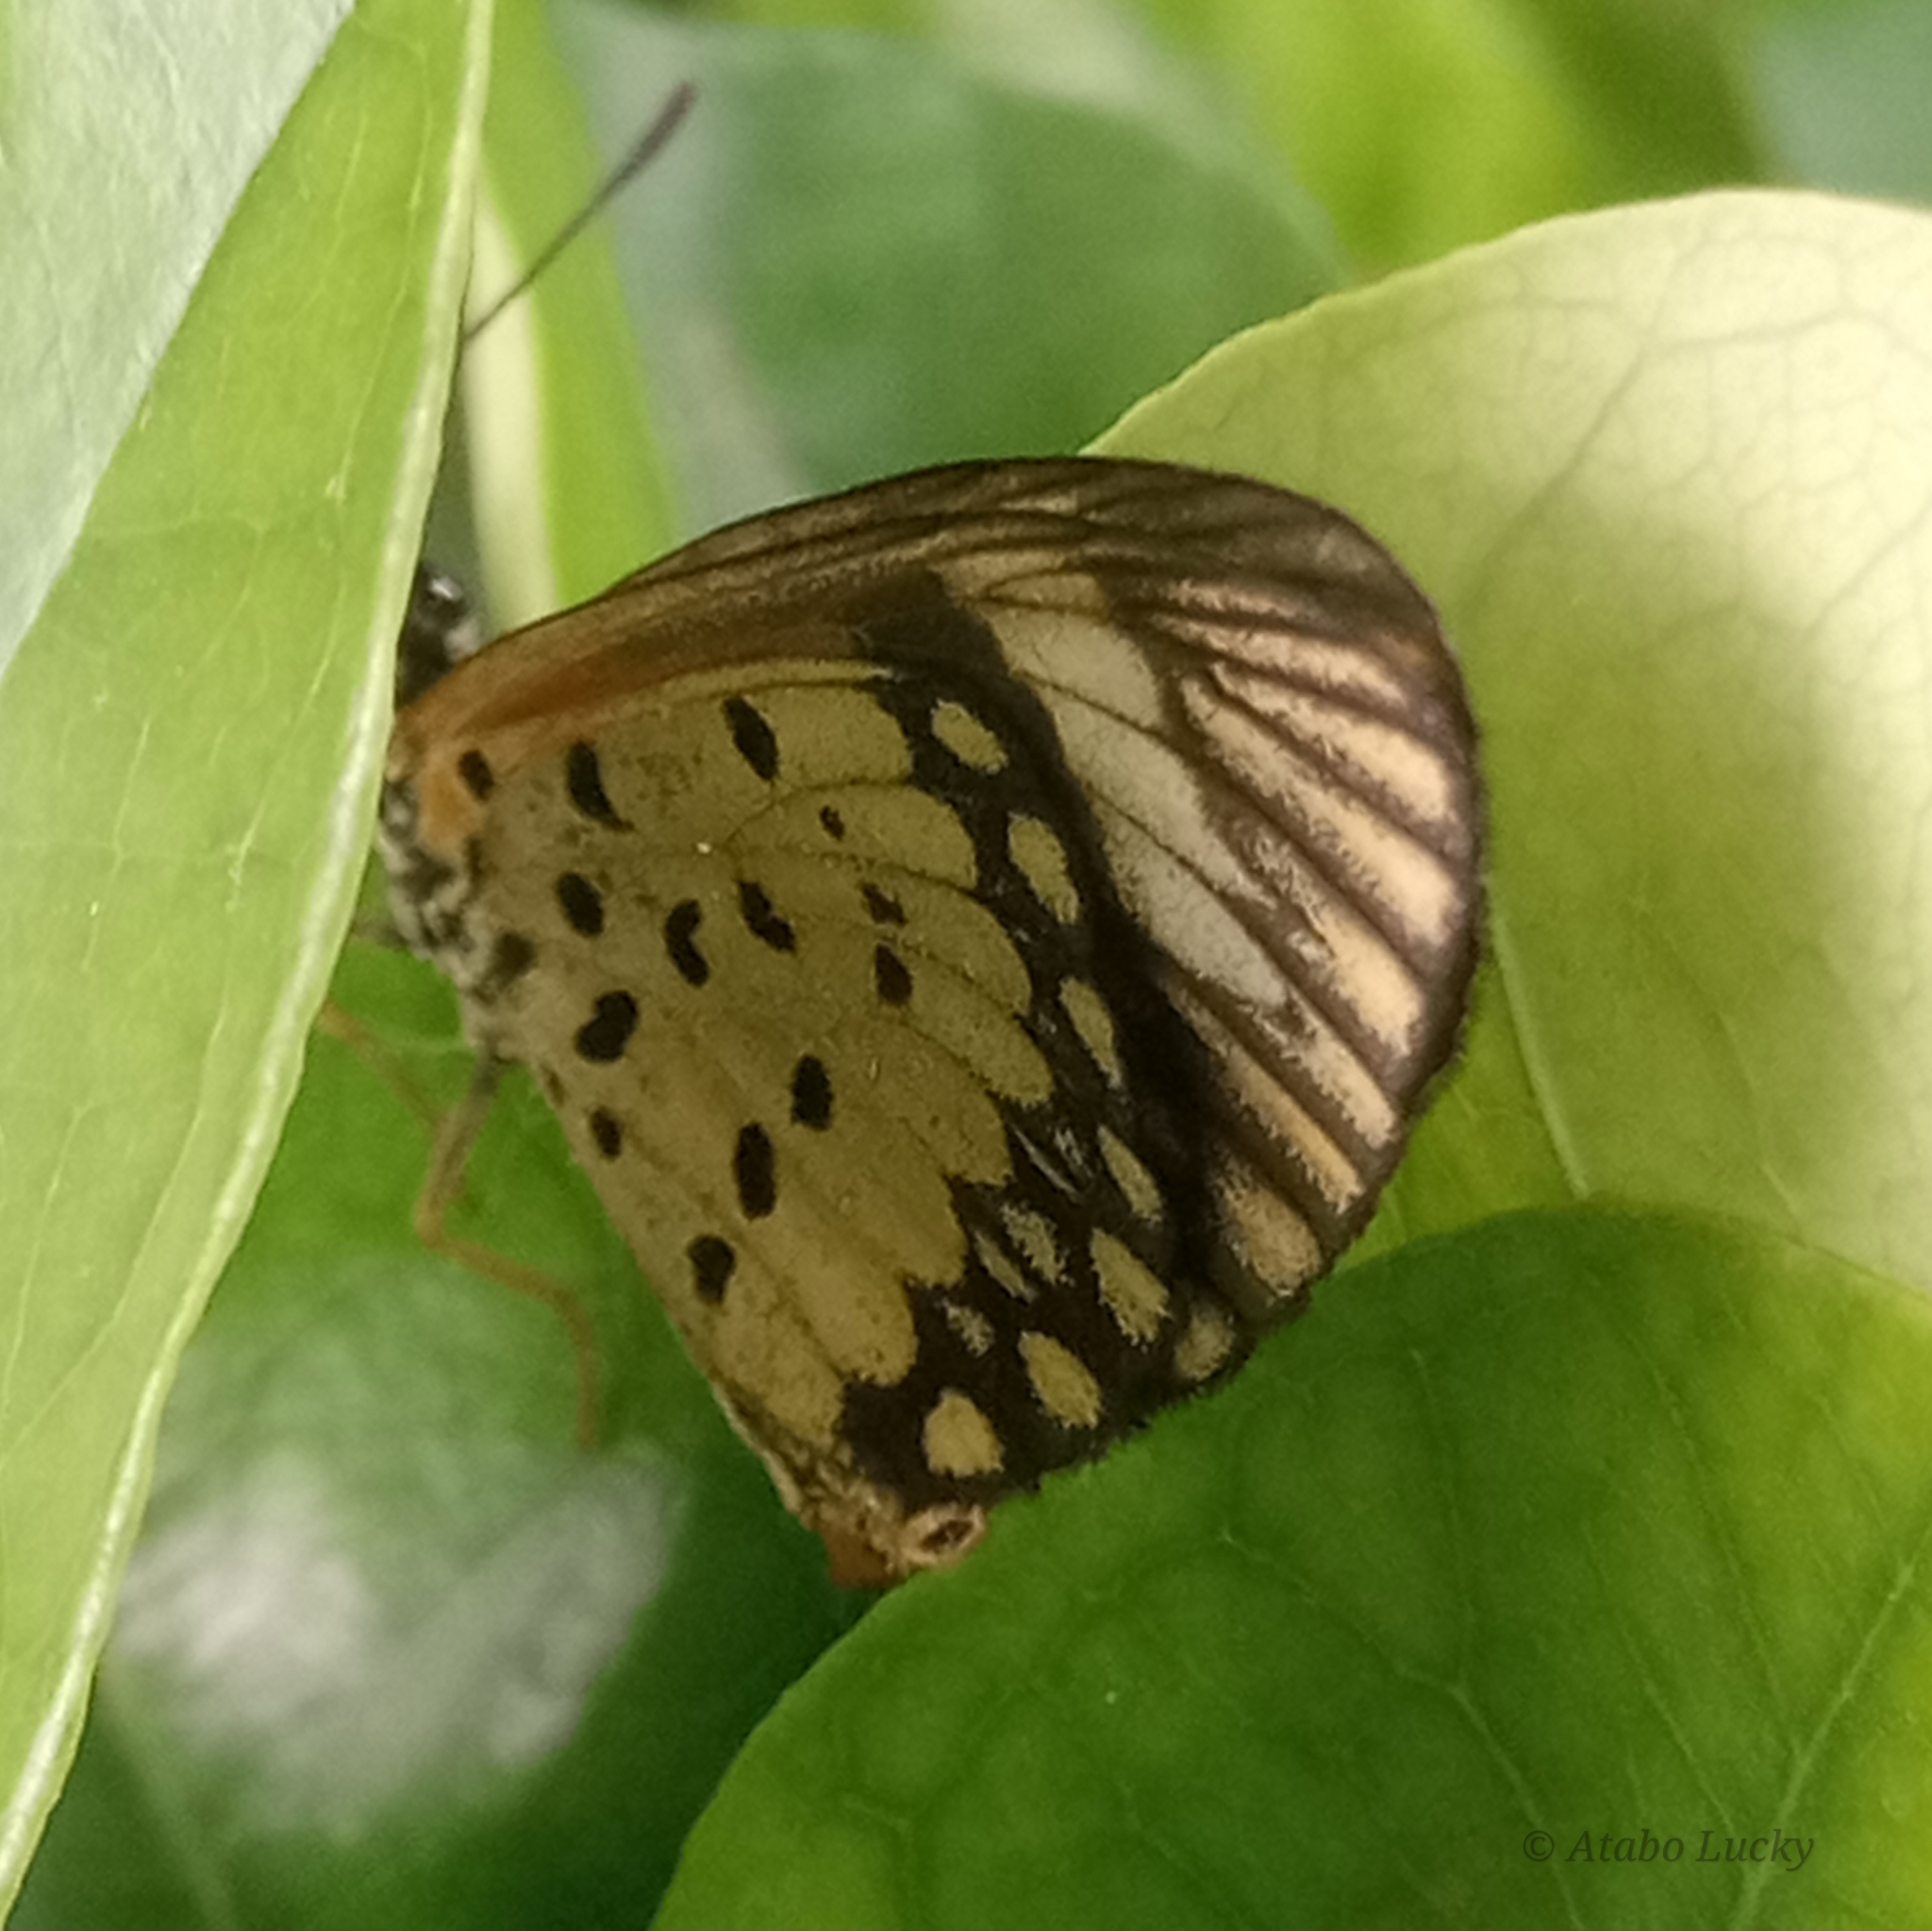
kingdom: Animalia
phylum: Arthropoda
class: Insecta
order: Lepidoptera
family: Nymphalidae
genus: Acraea
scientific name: Acraea Telchinia serena
